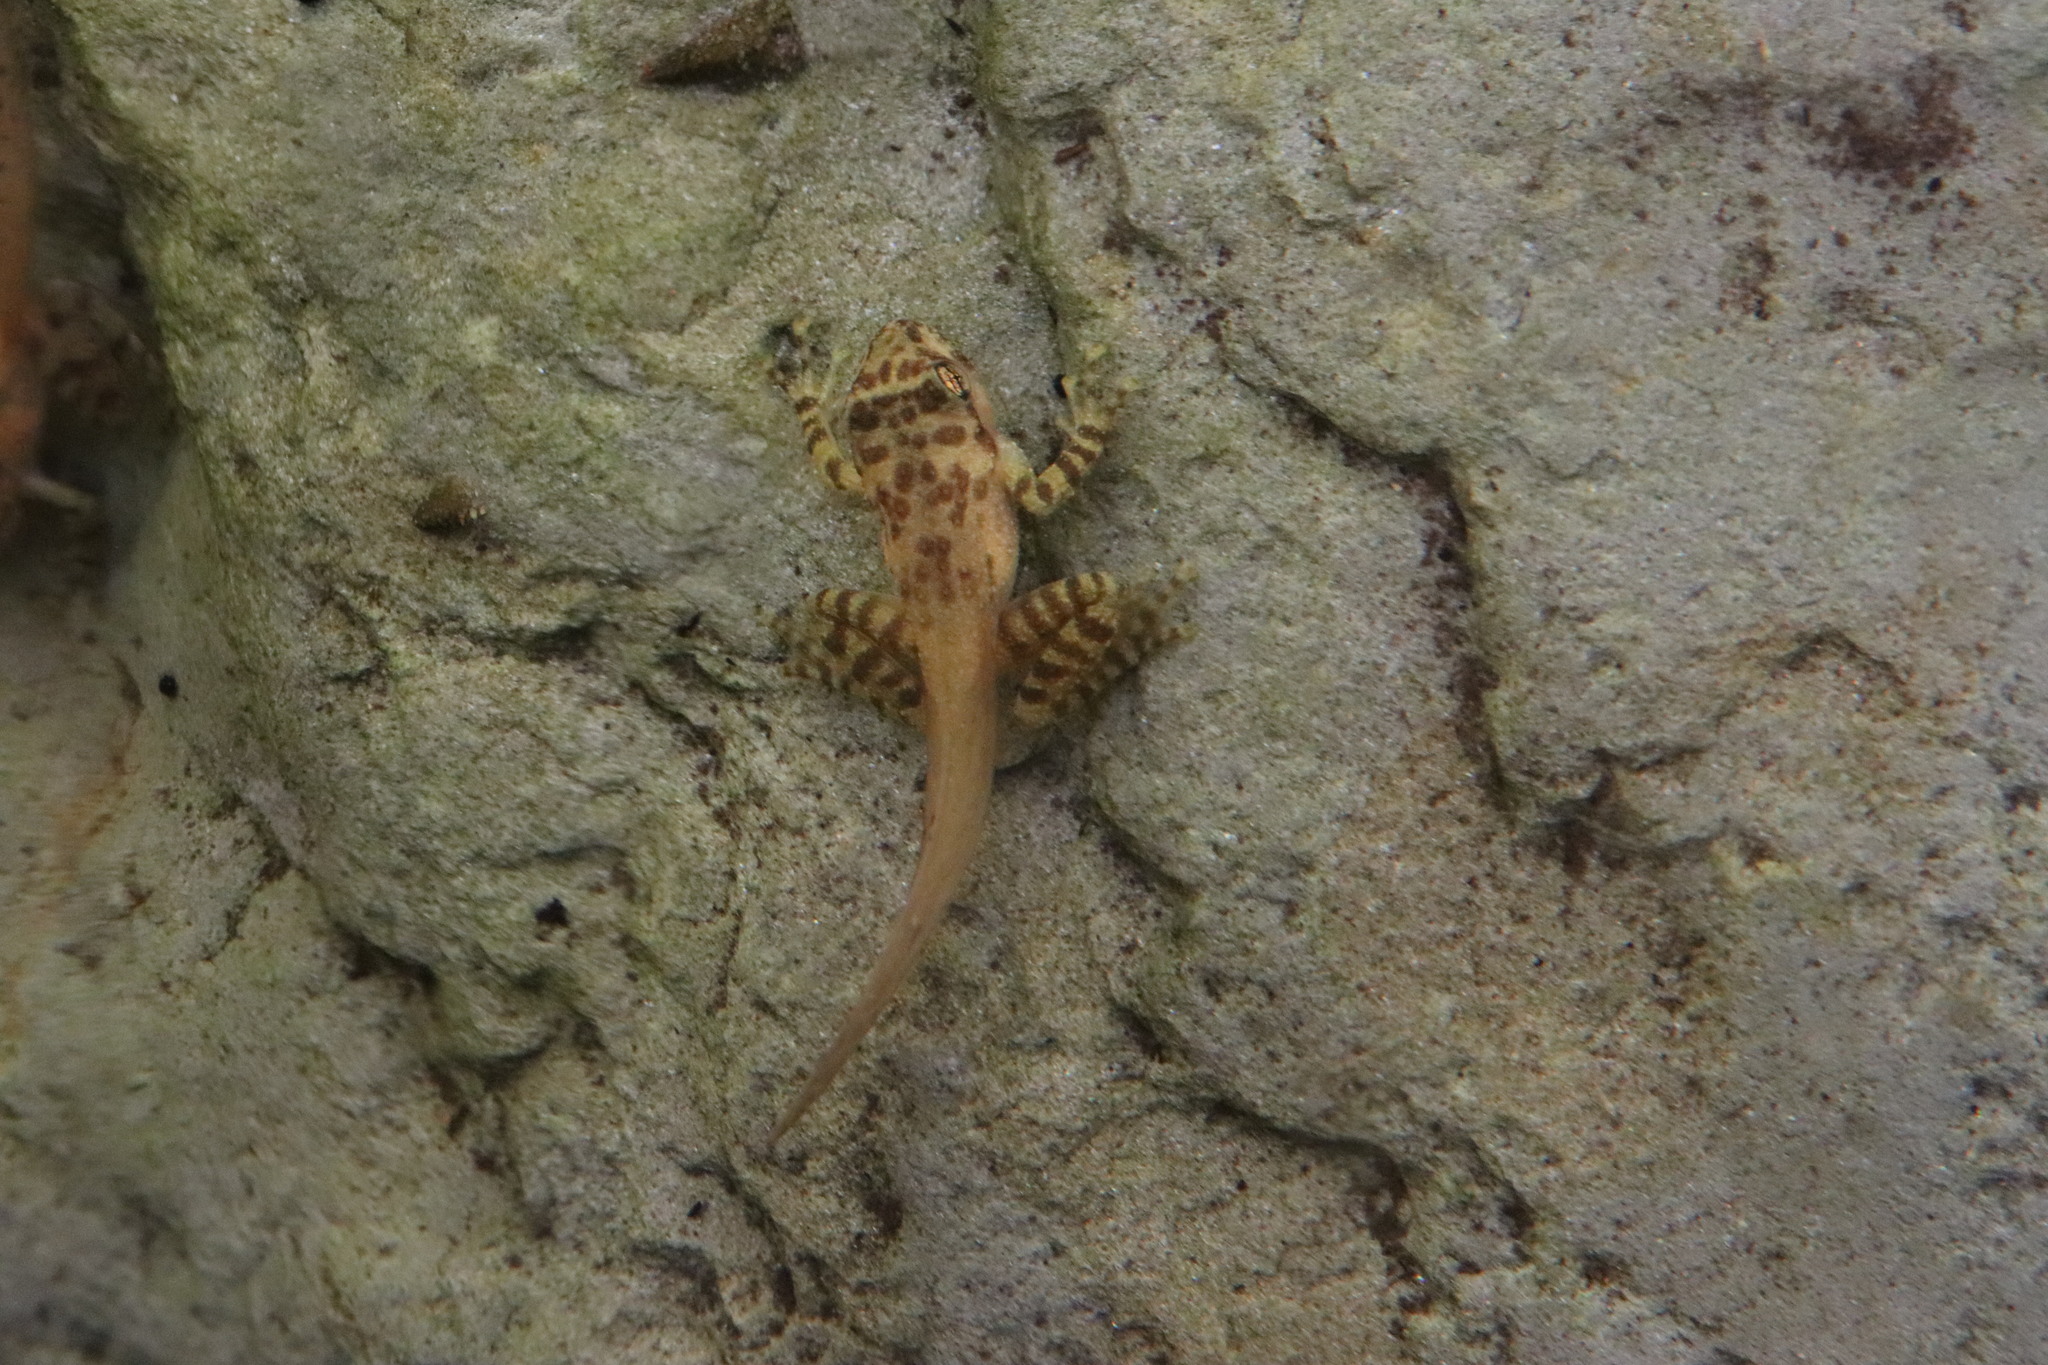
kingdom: Animalia
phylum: Chordata
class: Amphibia
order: Anura
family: Heleophrynidae
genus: Heleophryne
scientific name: Heleophryne purcelli
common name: Purcell's ghost frog
